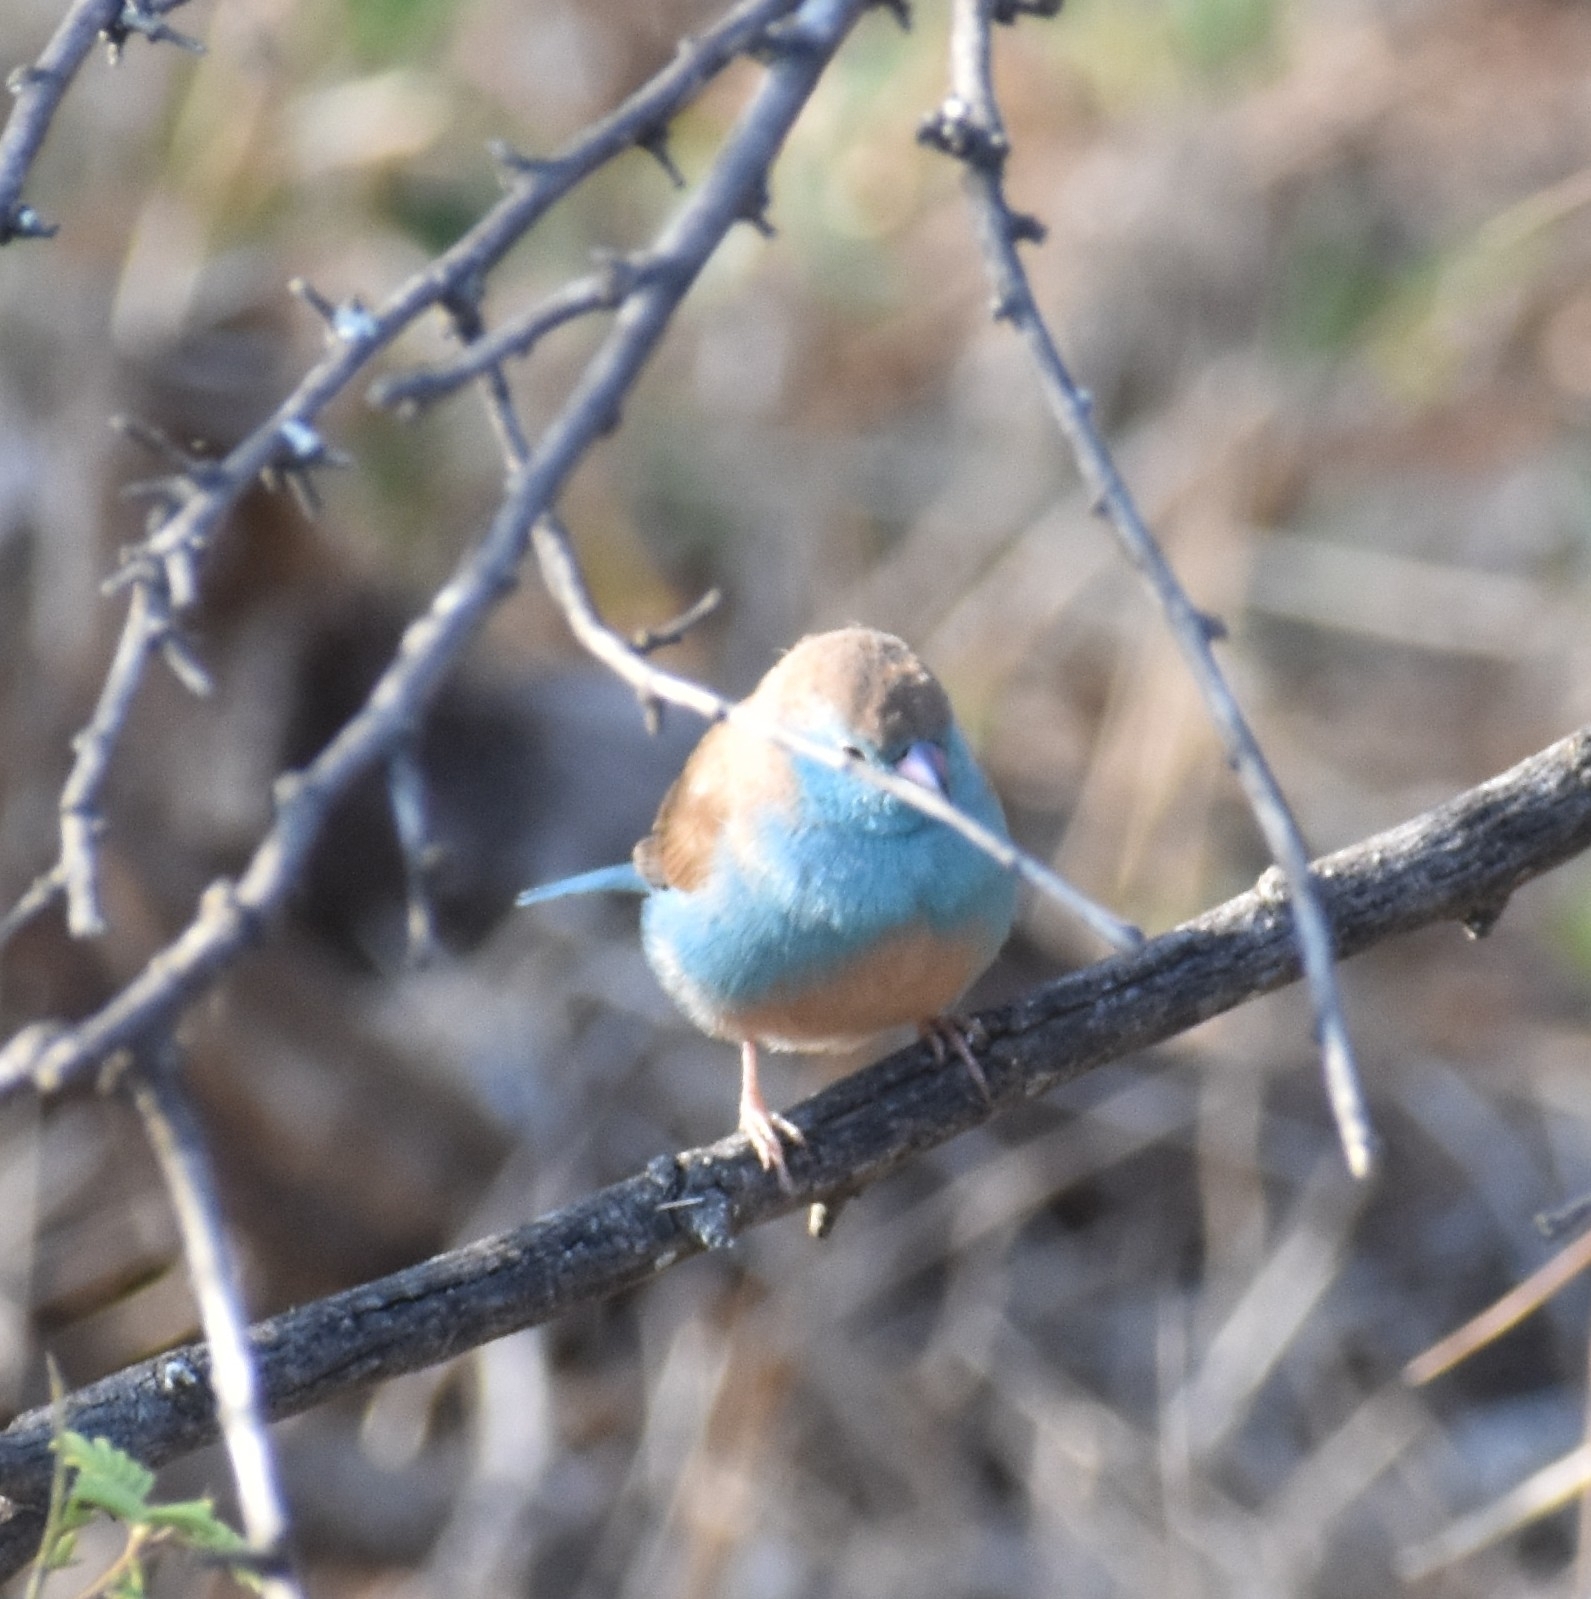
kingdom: Animalia
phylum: Chordata
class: Aves
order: Passeriformes
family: Estrildidae
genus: Uraeginthus
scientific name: Uraeginthus angolensis
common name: Blue waxbill
